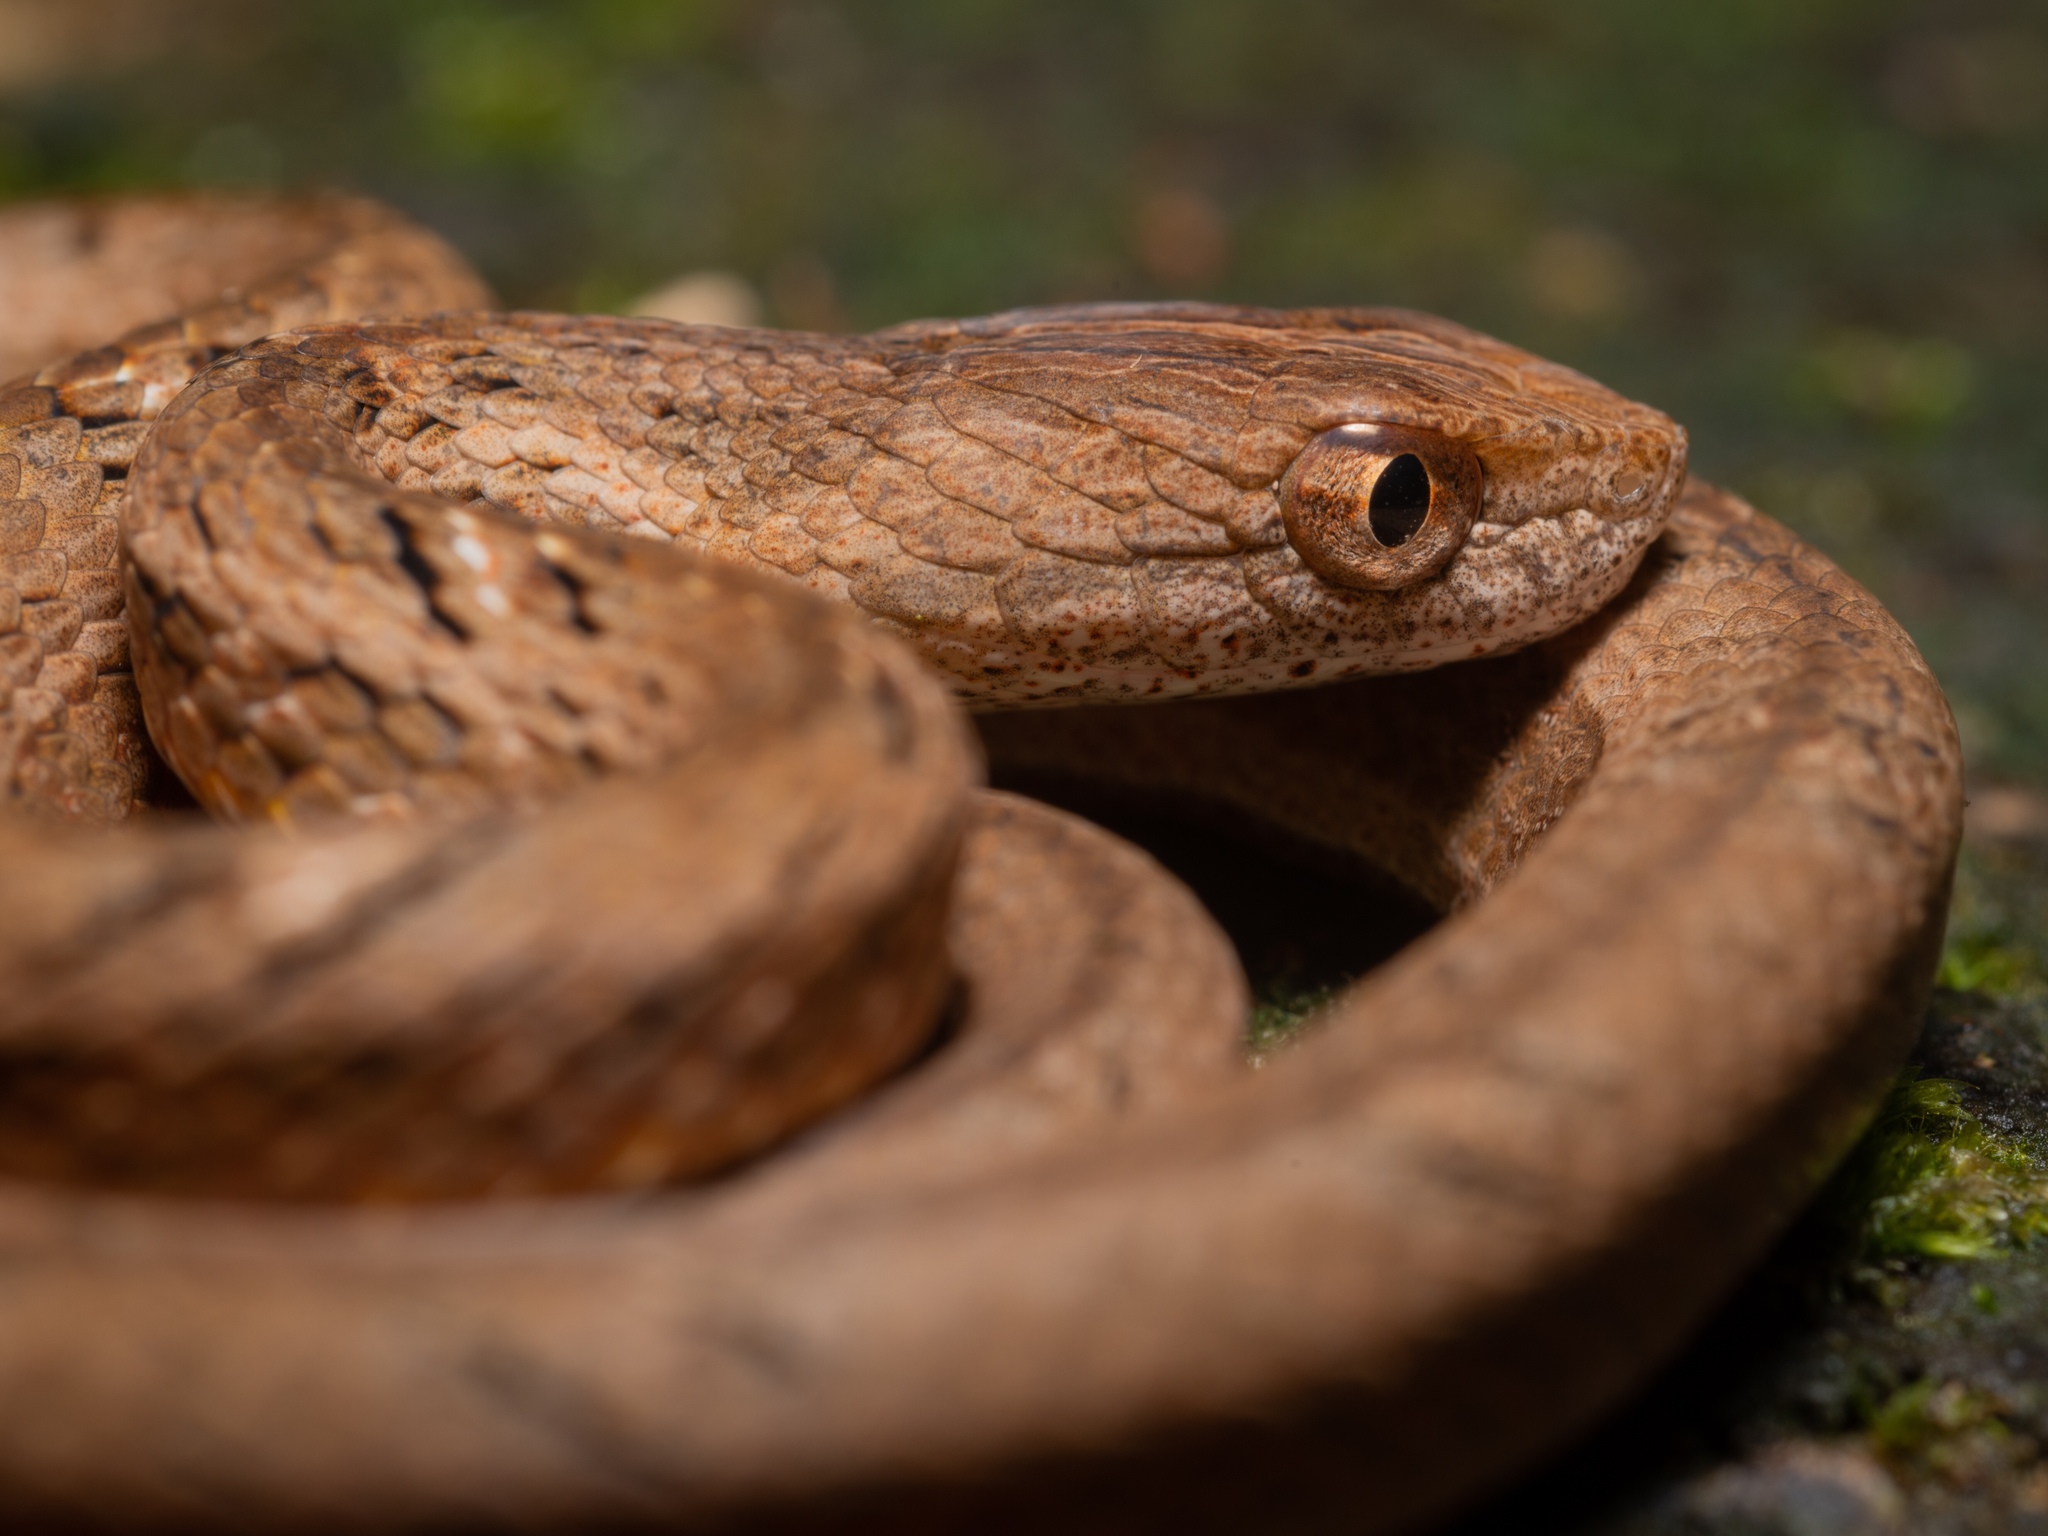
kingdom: Animalia
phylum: Chordata
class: Squamata
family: Pseudaspididae
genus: Psammodynastes
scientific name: Psammodynastes pulverulentus
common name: Common mock viper
